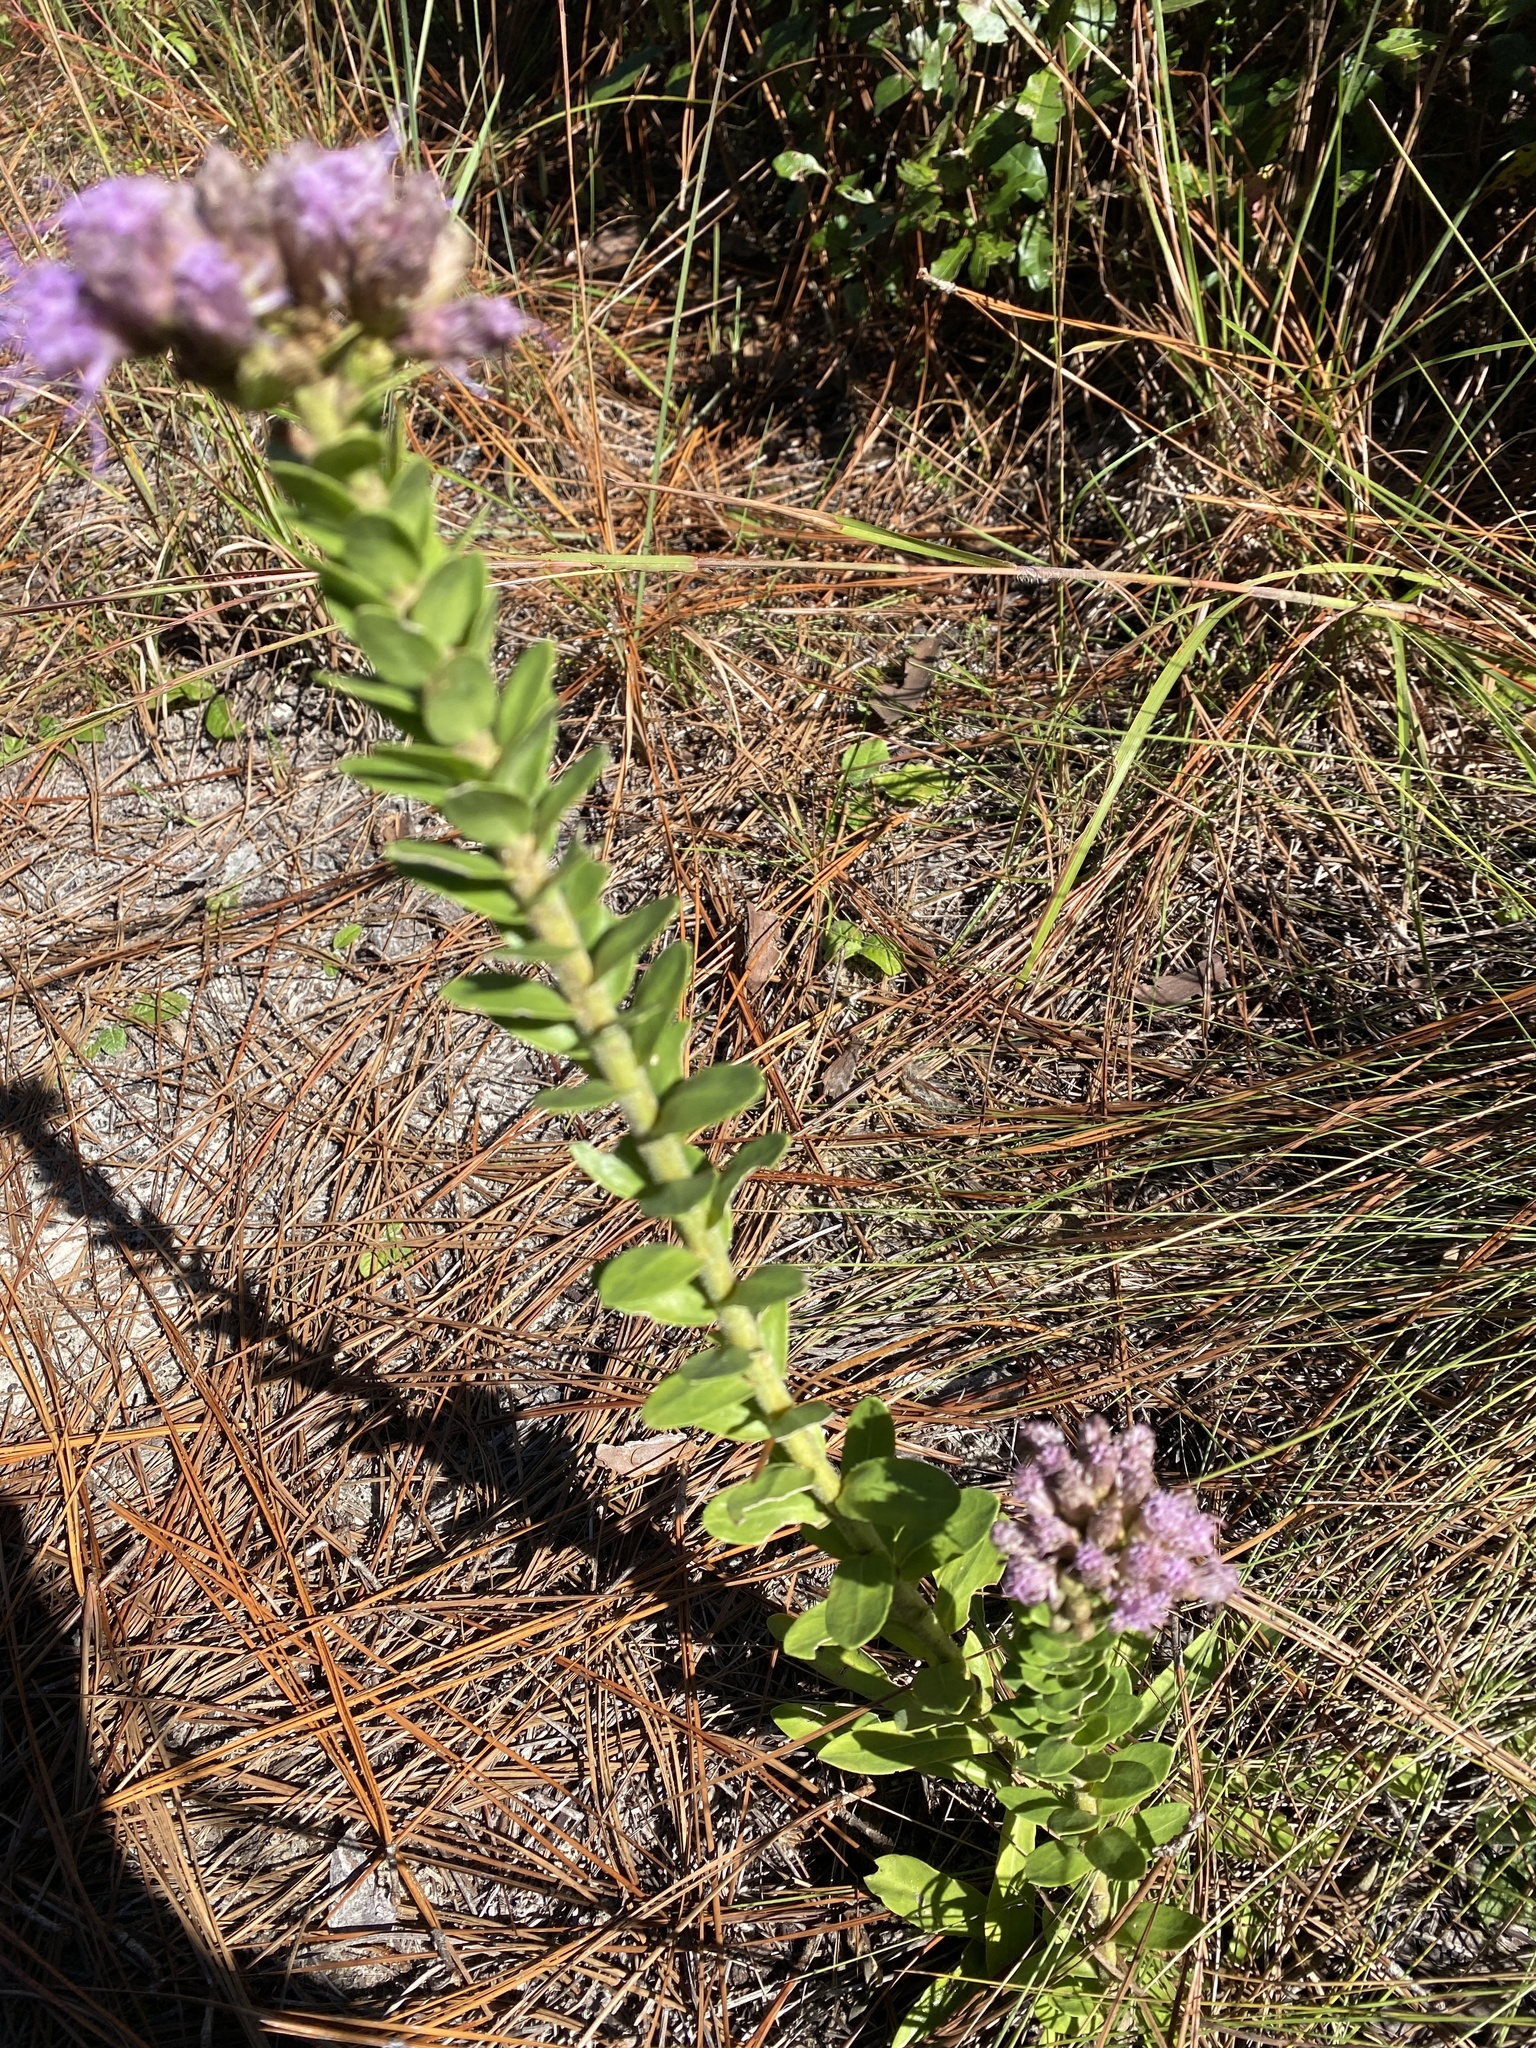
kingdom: Plantae
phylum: Tracheophyta
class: Magnoliopsida
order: Asterales
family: Asteraceae
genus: Carphephorus
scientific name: Carphephorus corymbosus
